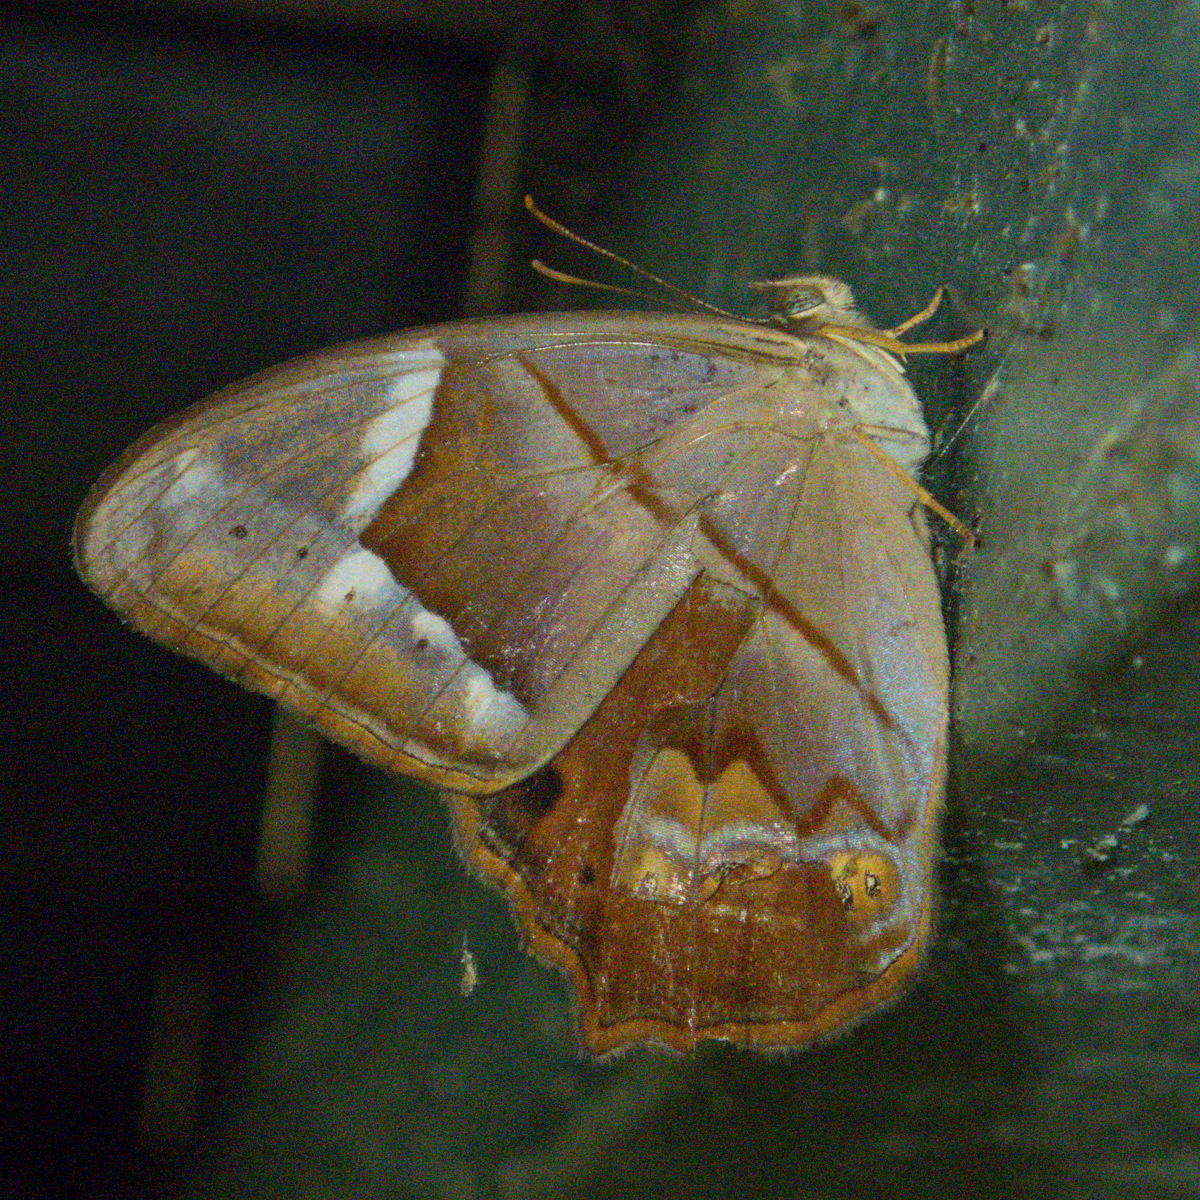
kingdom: Animalia
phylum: Arthropoda
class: Insecta
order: Lepidoptera
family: Nymphalidae
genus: Lethe
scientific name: Lethe minerva
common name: Banded red forester
